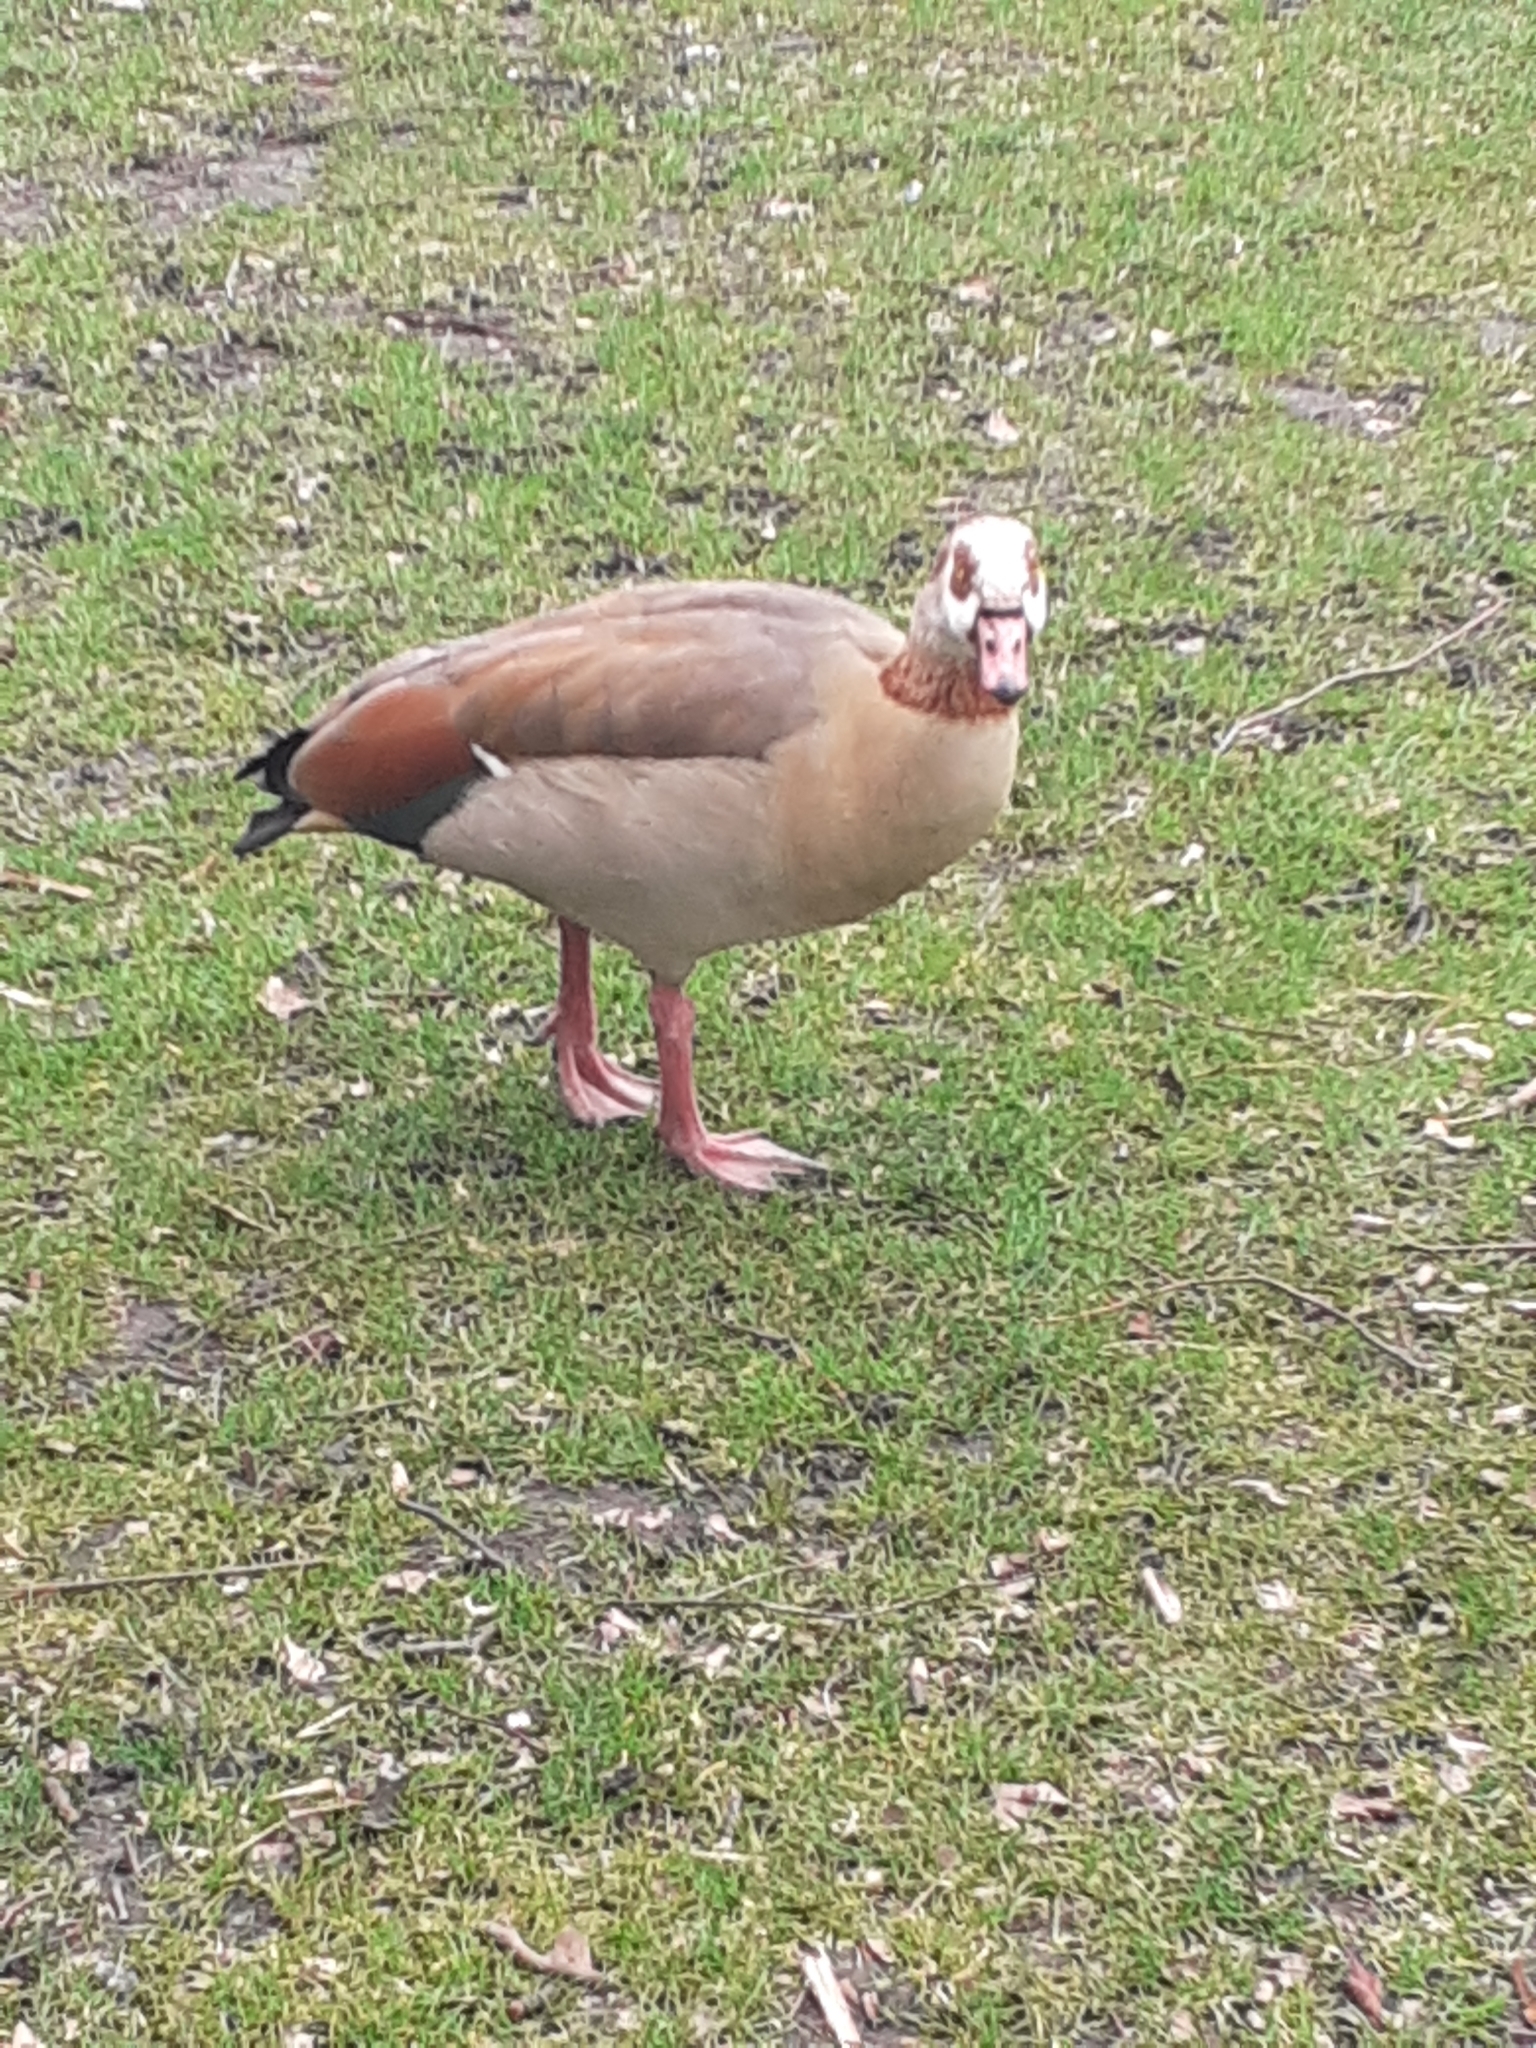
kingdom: Animalia
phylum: Chordata
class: Aves
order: Anseriformes
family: Anatidae
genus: Alopochen
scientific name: Alopochen aegyptiaca
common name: Egyptian goose
